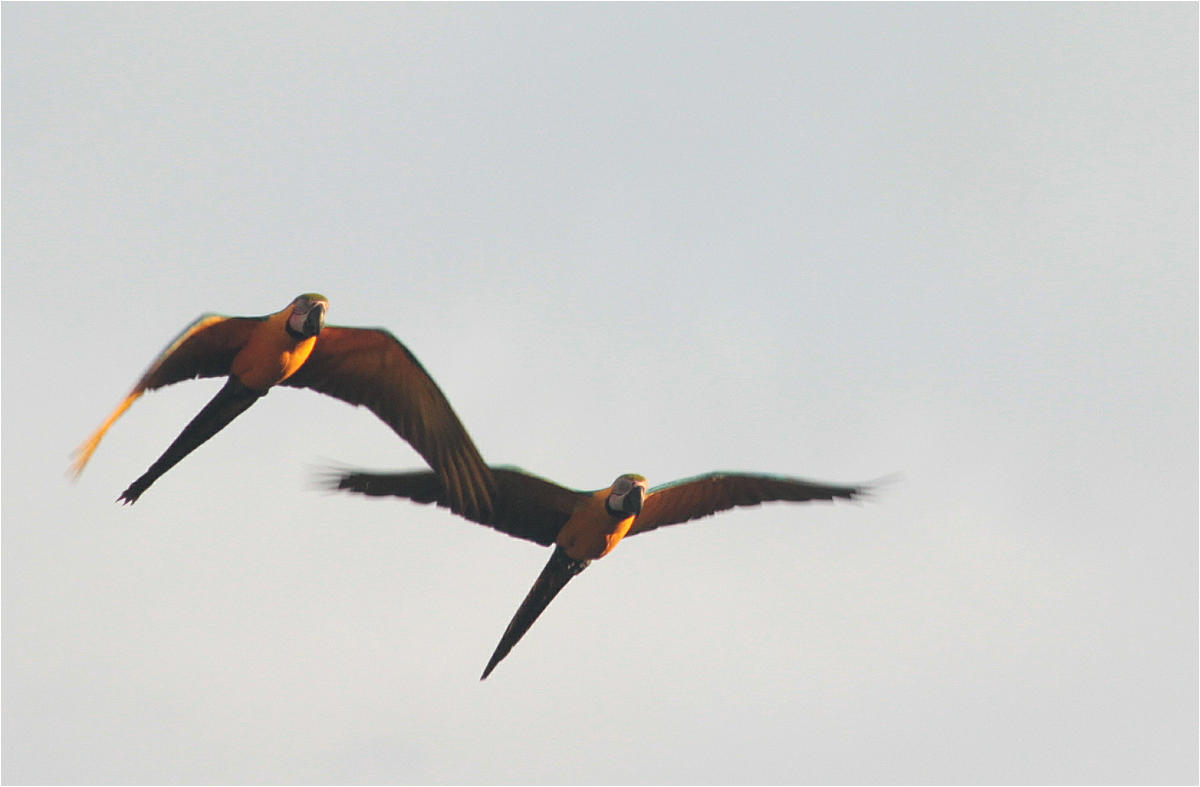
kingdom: Animalia
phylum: Chordata
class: Aves
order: Psittaciformes
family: Psittacidae
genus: Ara
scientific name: Ara ararauna
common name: Blue-and-yellow macaw
